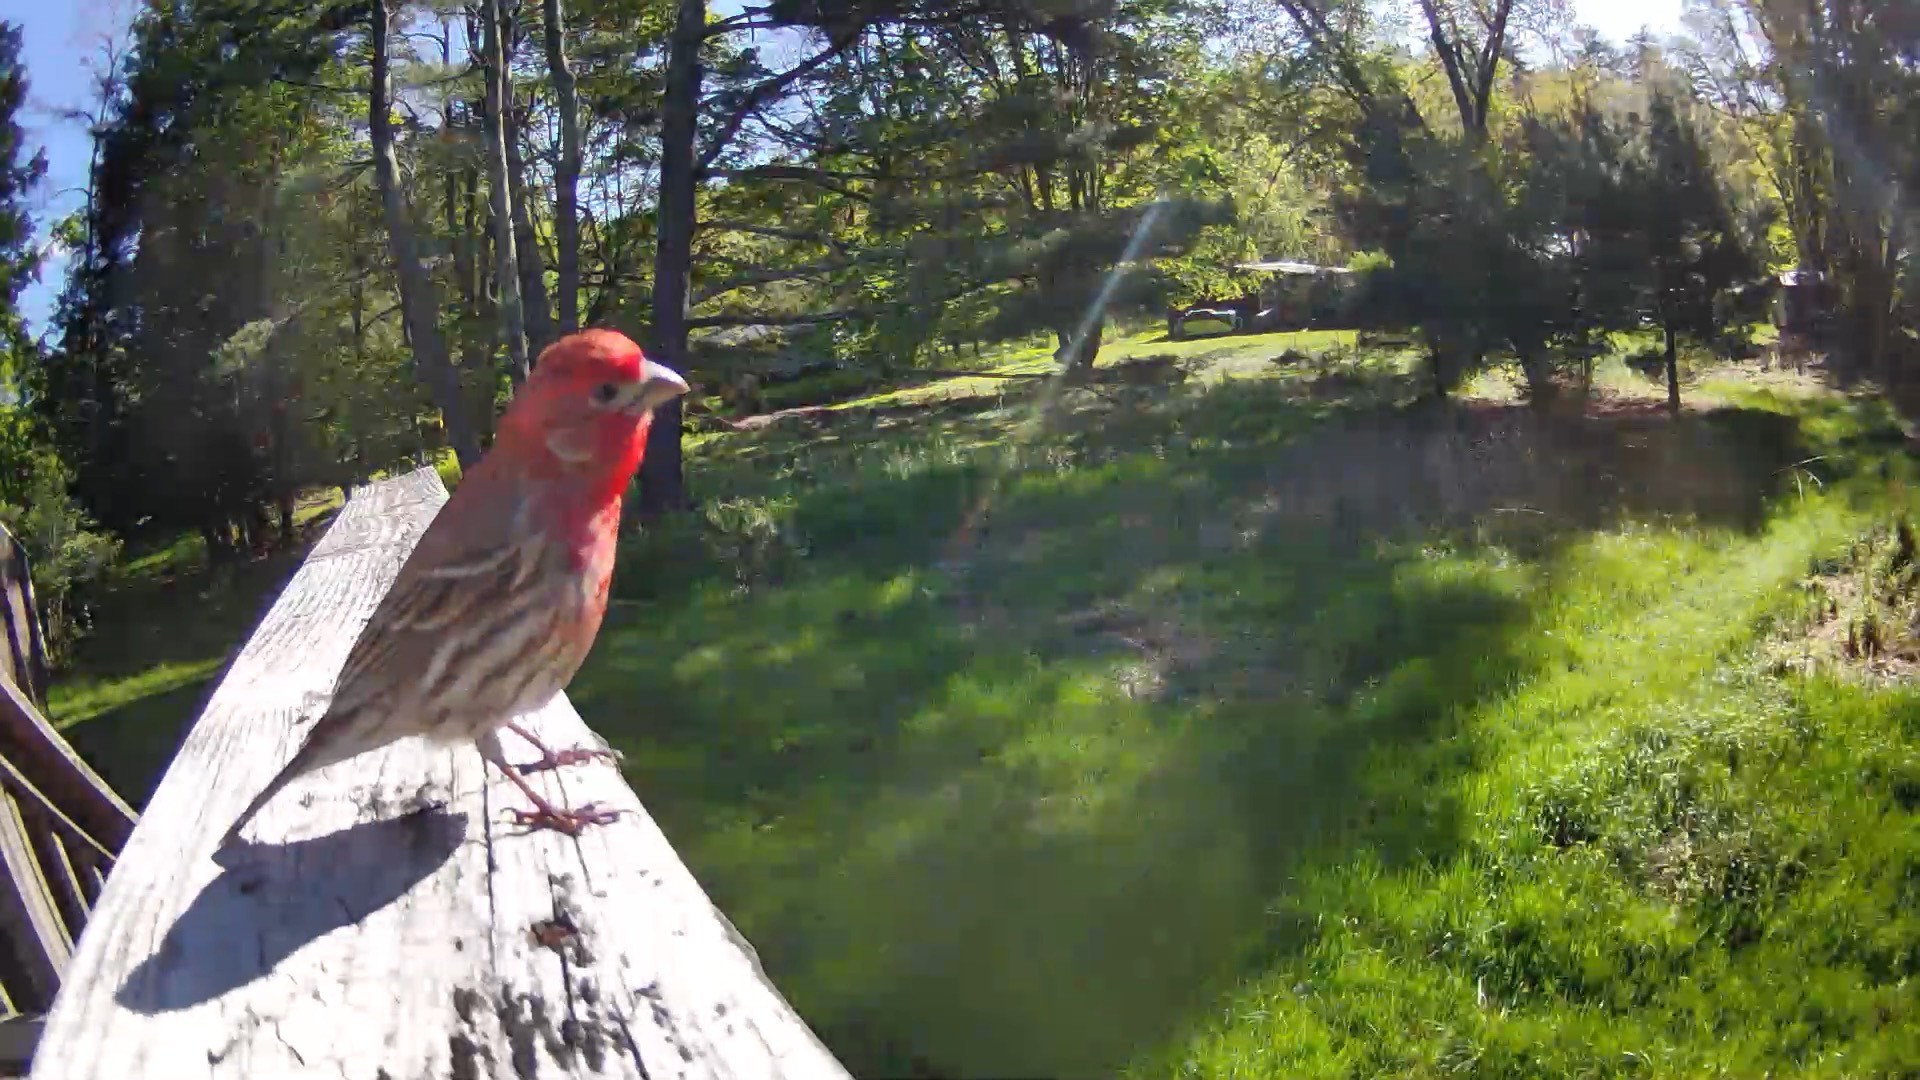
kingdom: Animalia
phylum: Chordata
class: Aves
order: Passeriformes
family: Fringillidae
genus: Haemorhous
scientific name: Haemorhous mexicanus
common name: House finch
